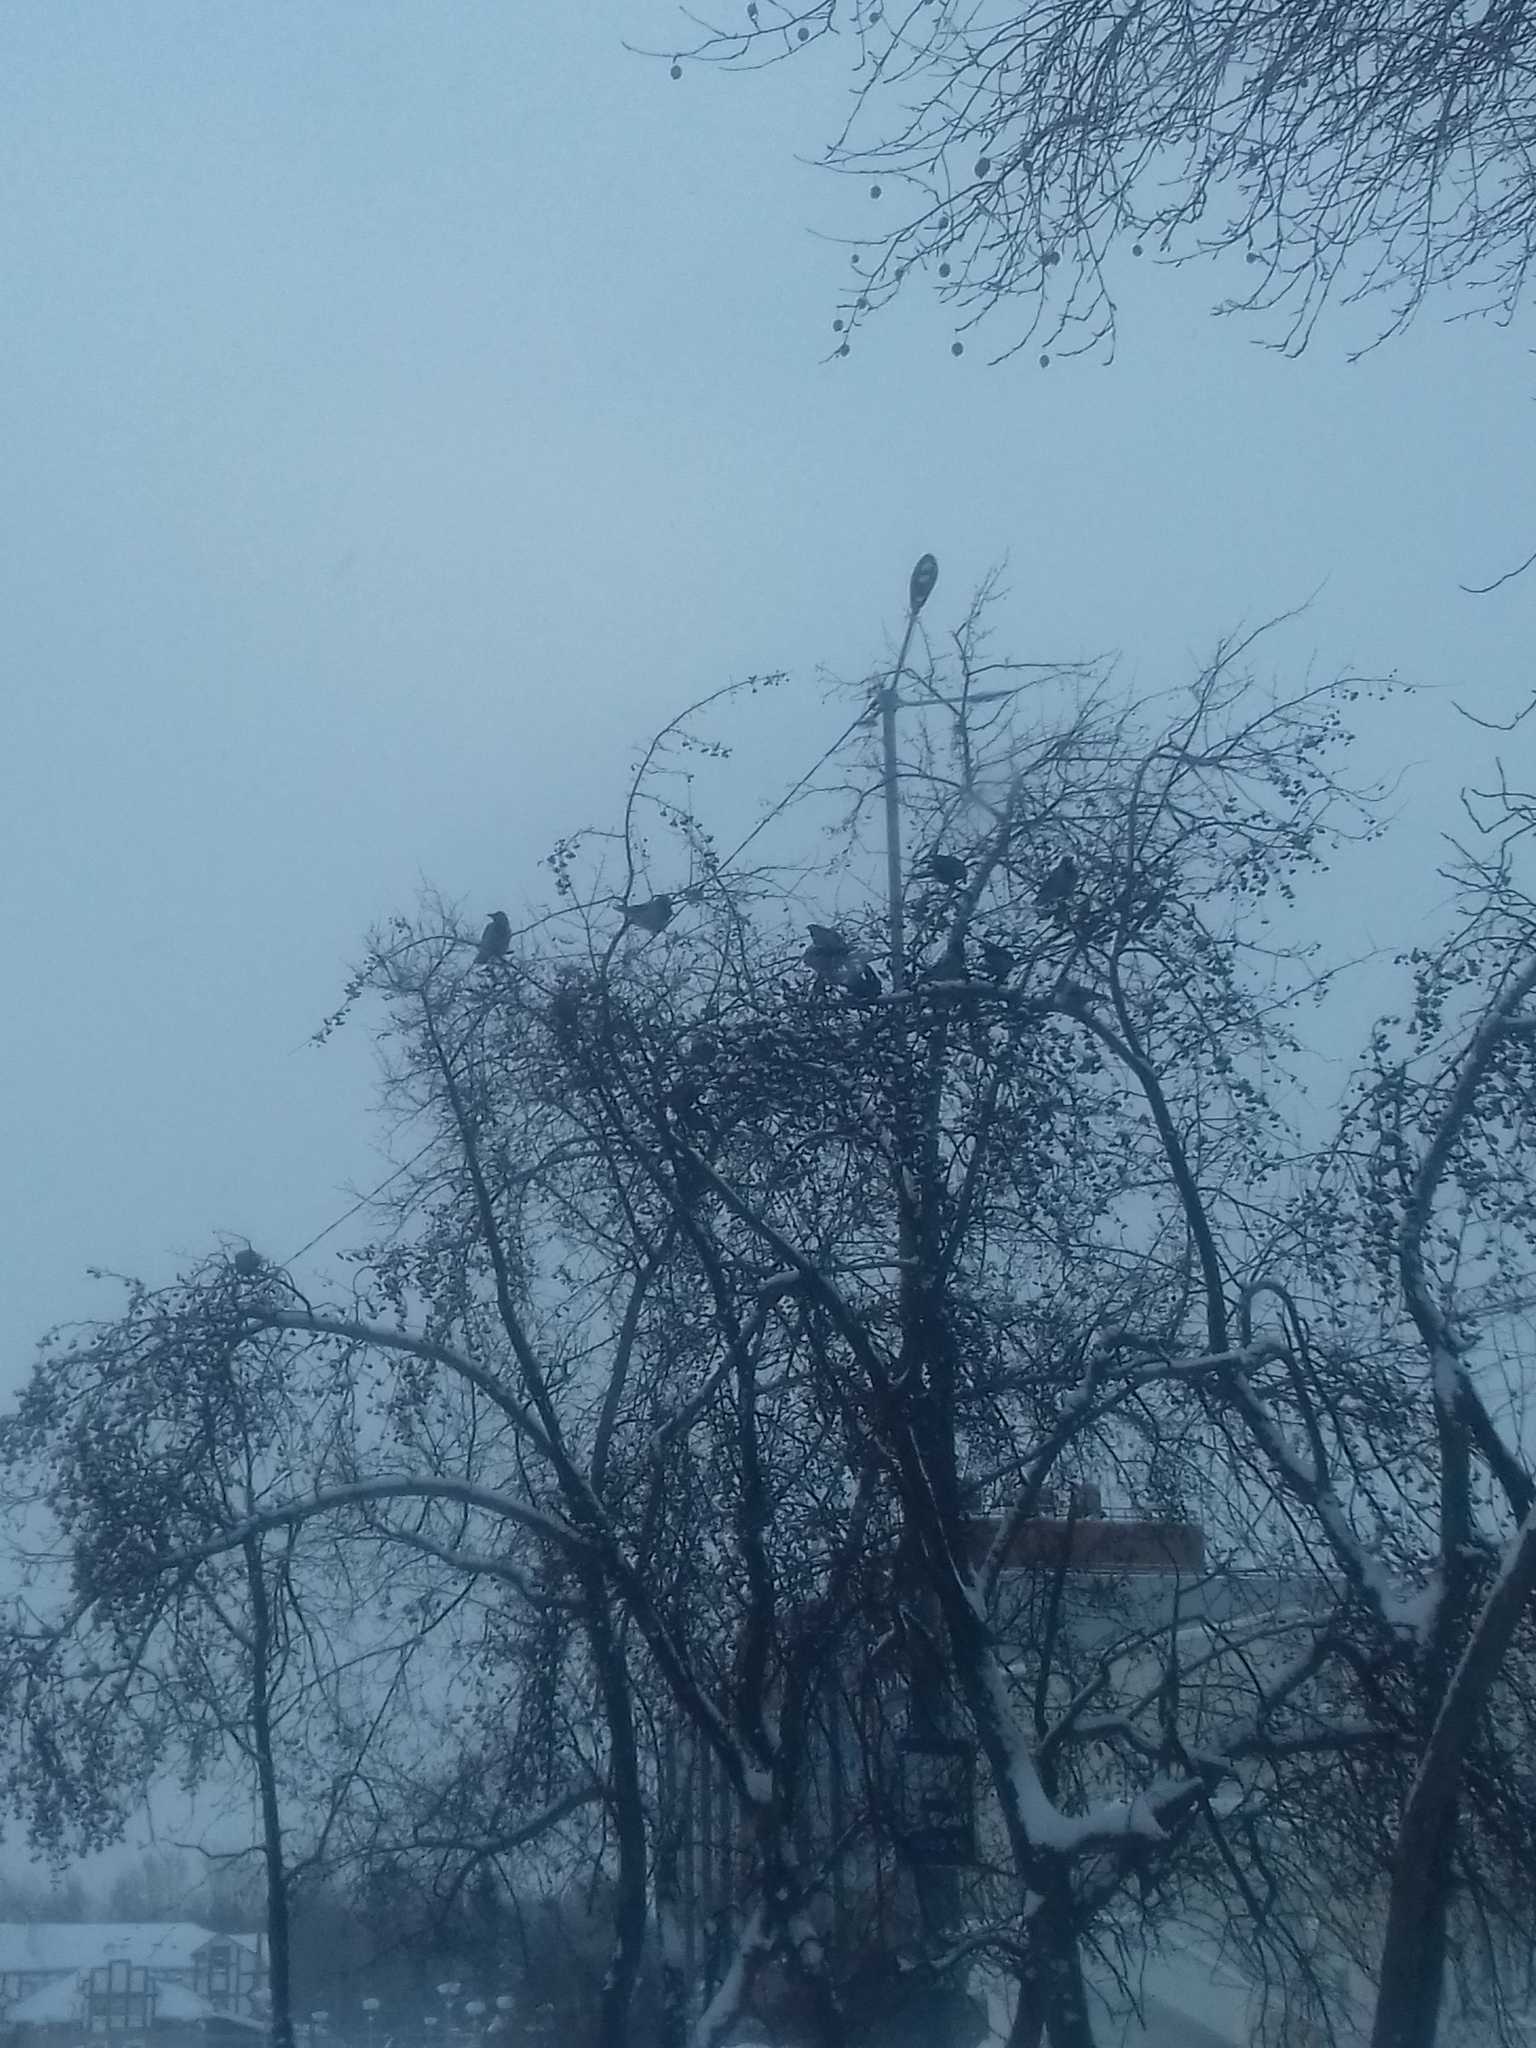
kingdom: Animalia
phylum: Chordata
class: Aves
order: Passeriformes
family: Corvidae
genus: Corvus
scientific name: Corvus cornix
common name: Hooded crow
